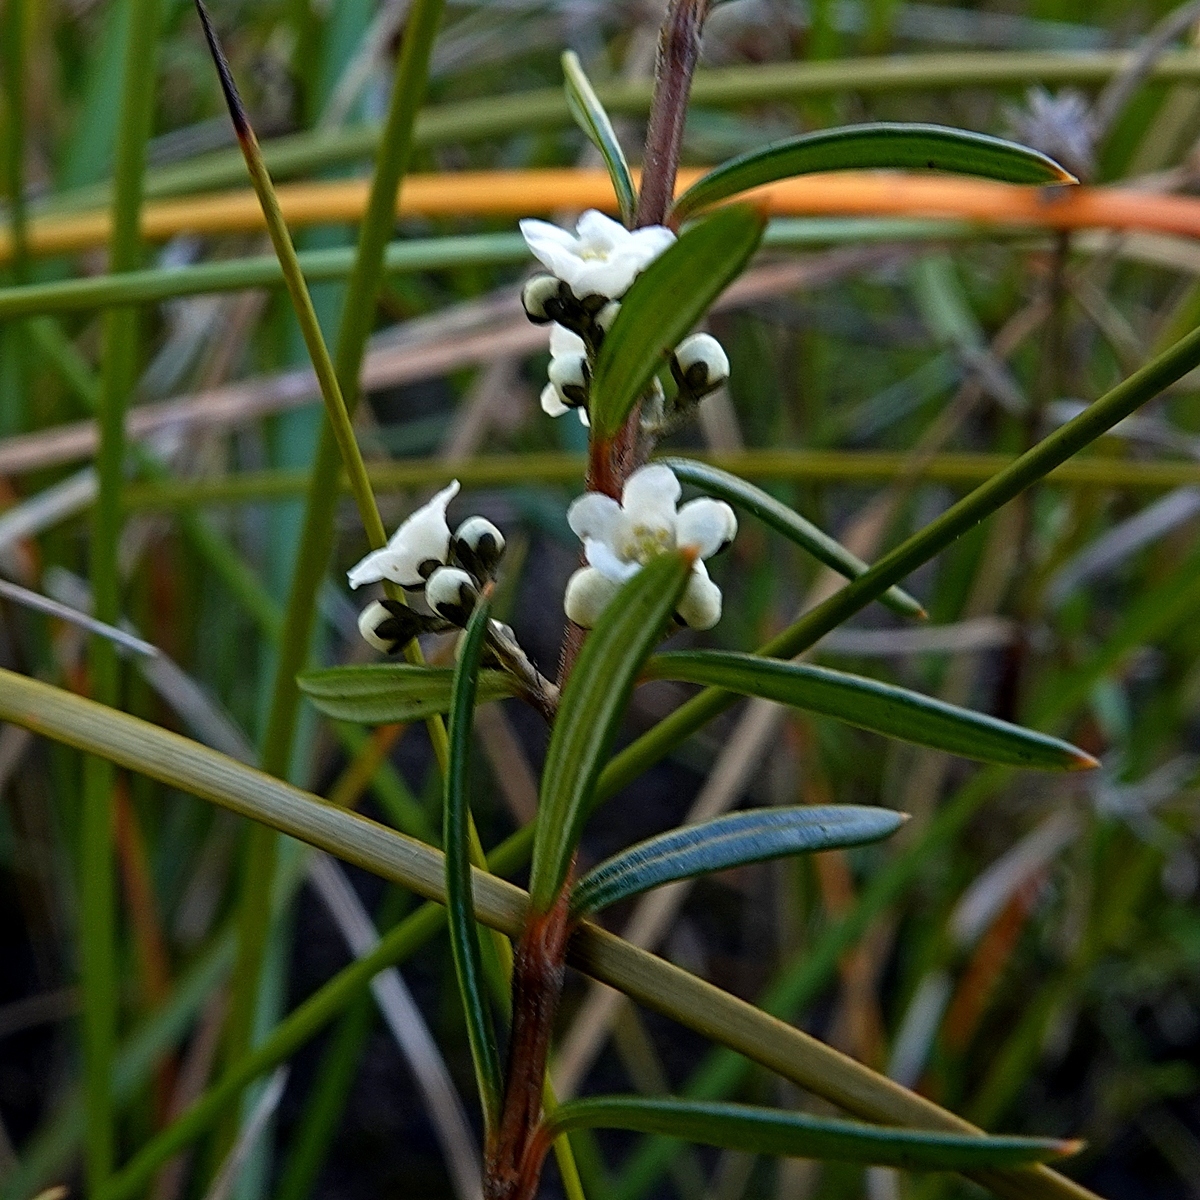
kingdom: Plantae
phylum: Tracheophyta
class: Magnoliopsida
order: Gentianales
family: Loganiaceae
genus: Logania
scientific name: Logania albiflora
